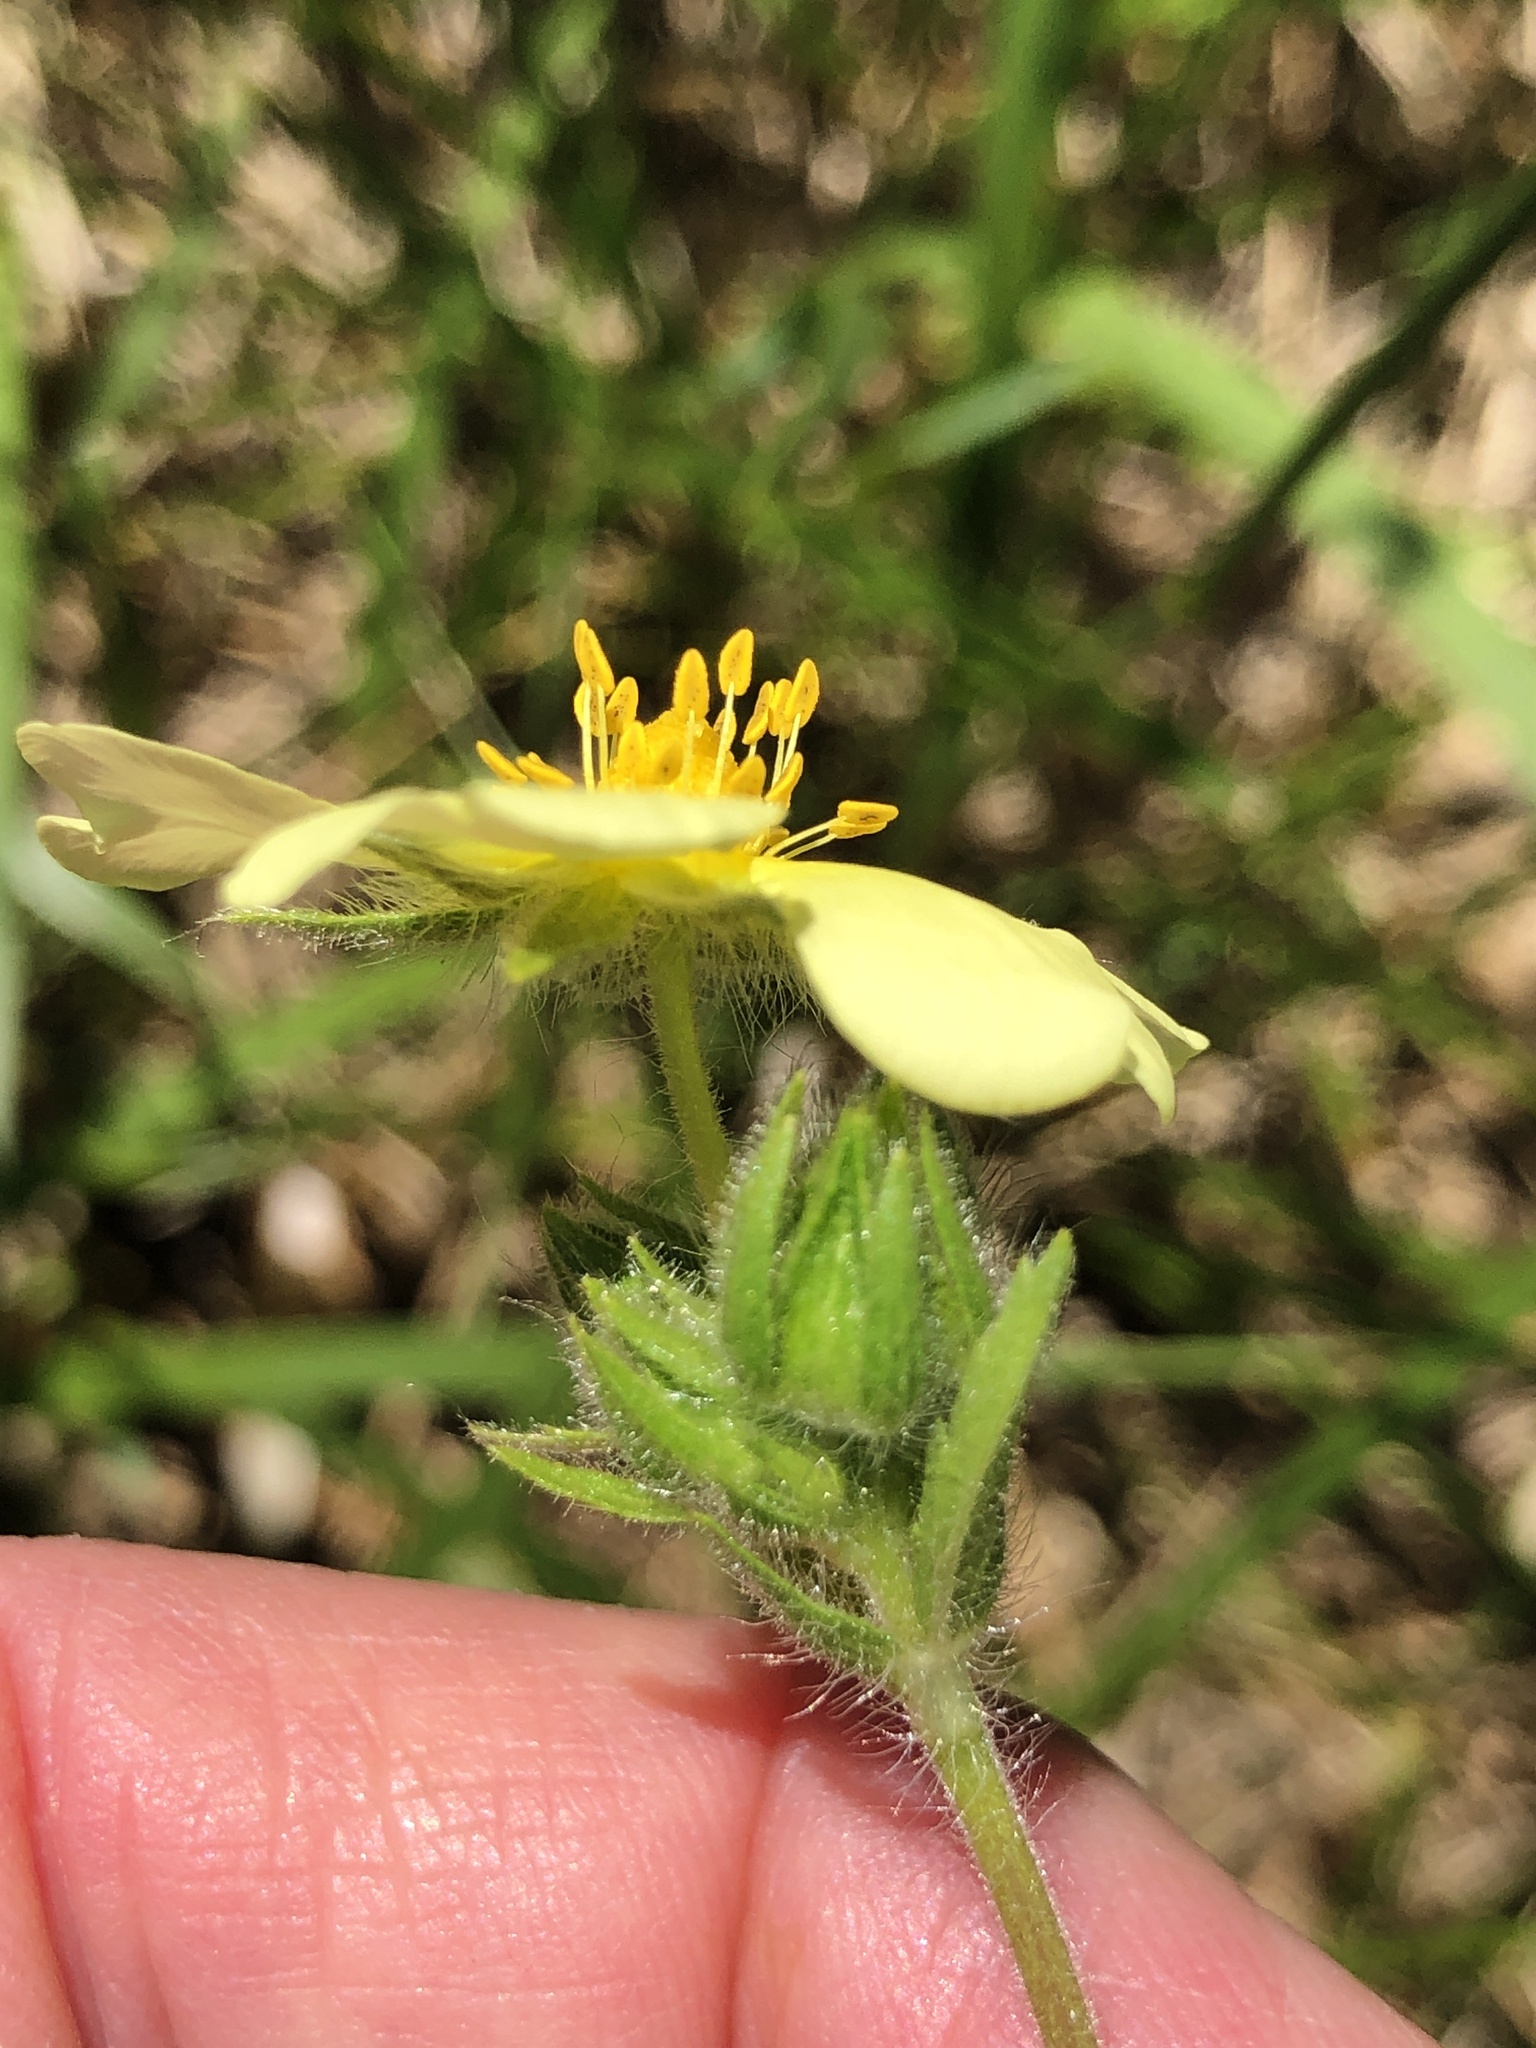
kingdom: Plantae
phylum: Tracheophyta
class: Magnoliopsida
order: Rosales
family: Rosaceae
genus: Potentilla
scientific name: Potentilla recta
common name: Sulphur cinquefoil
